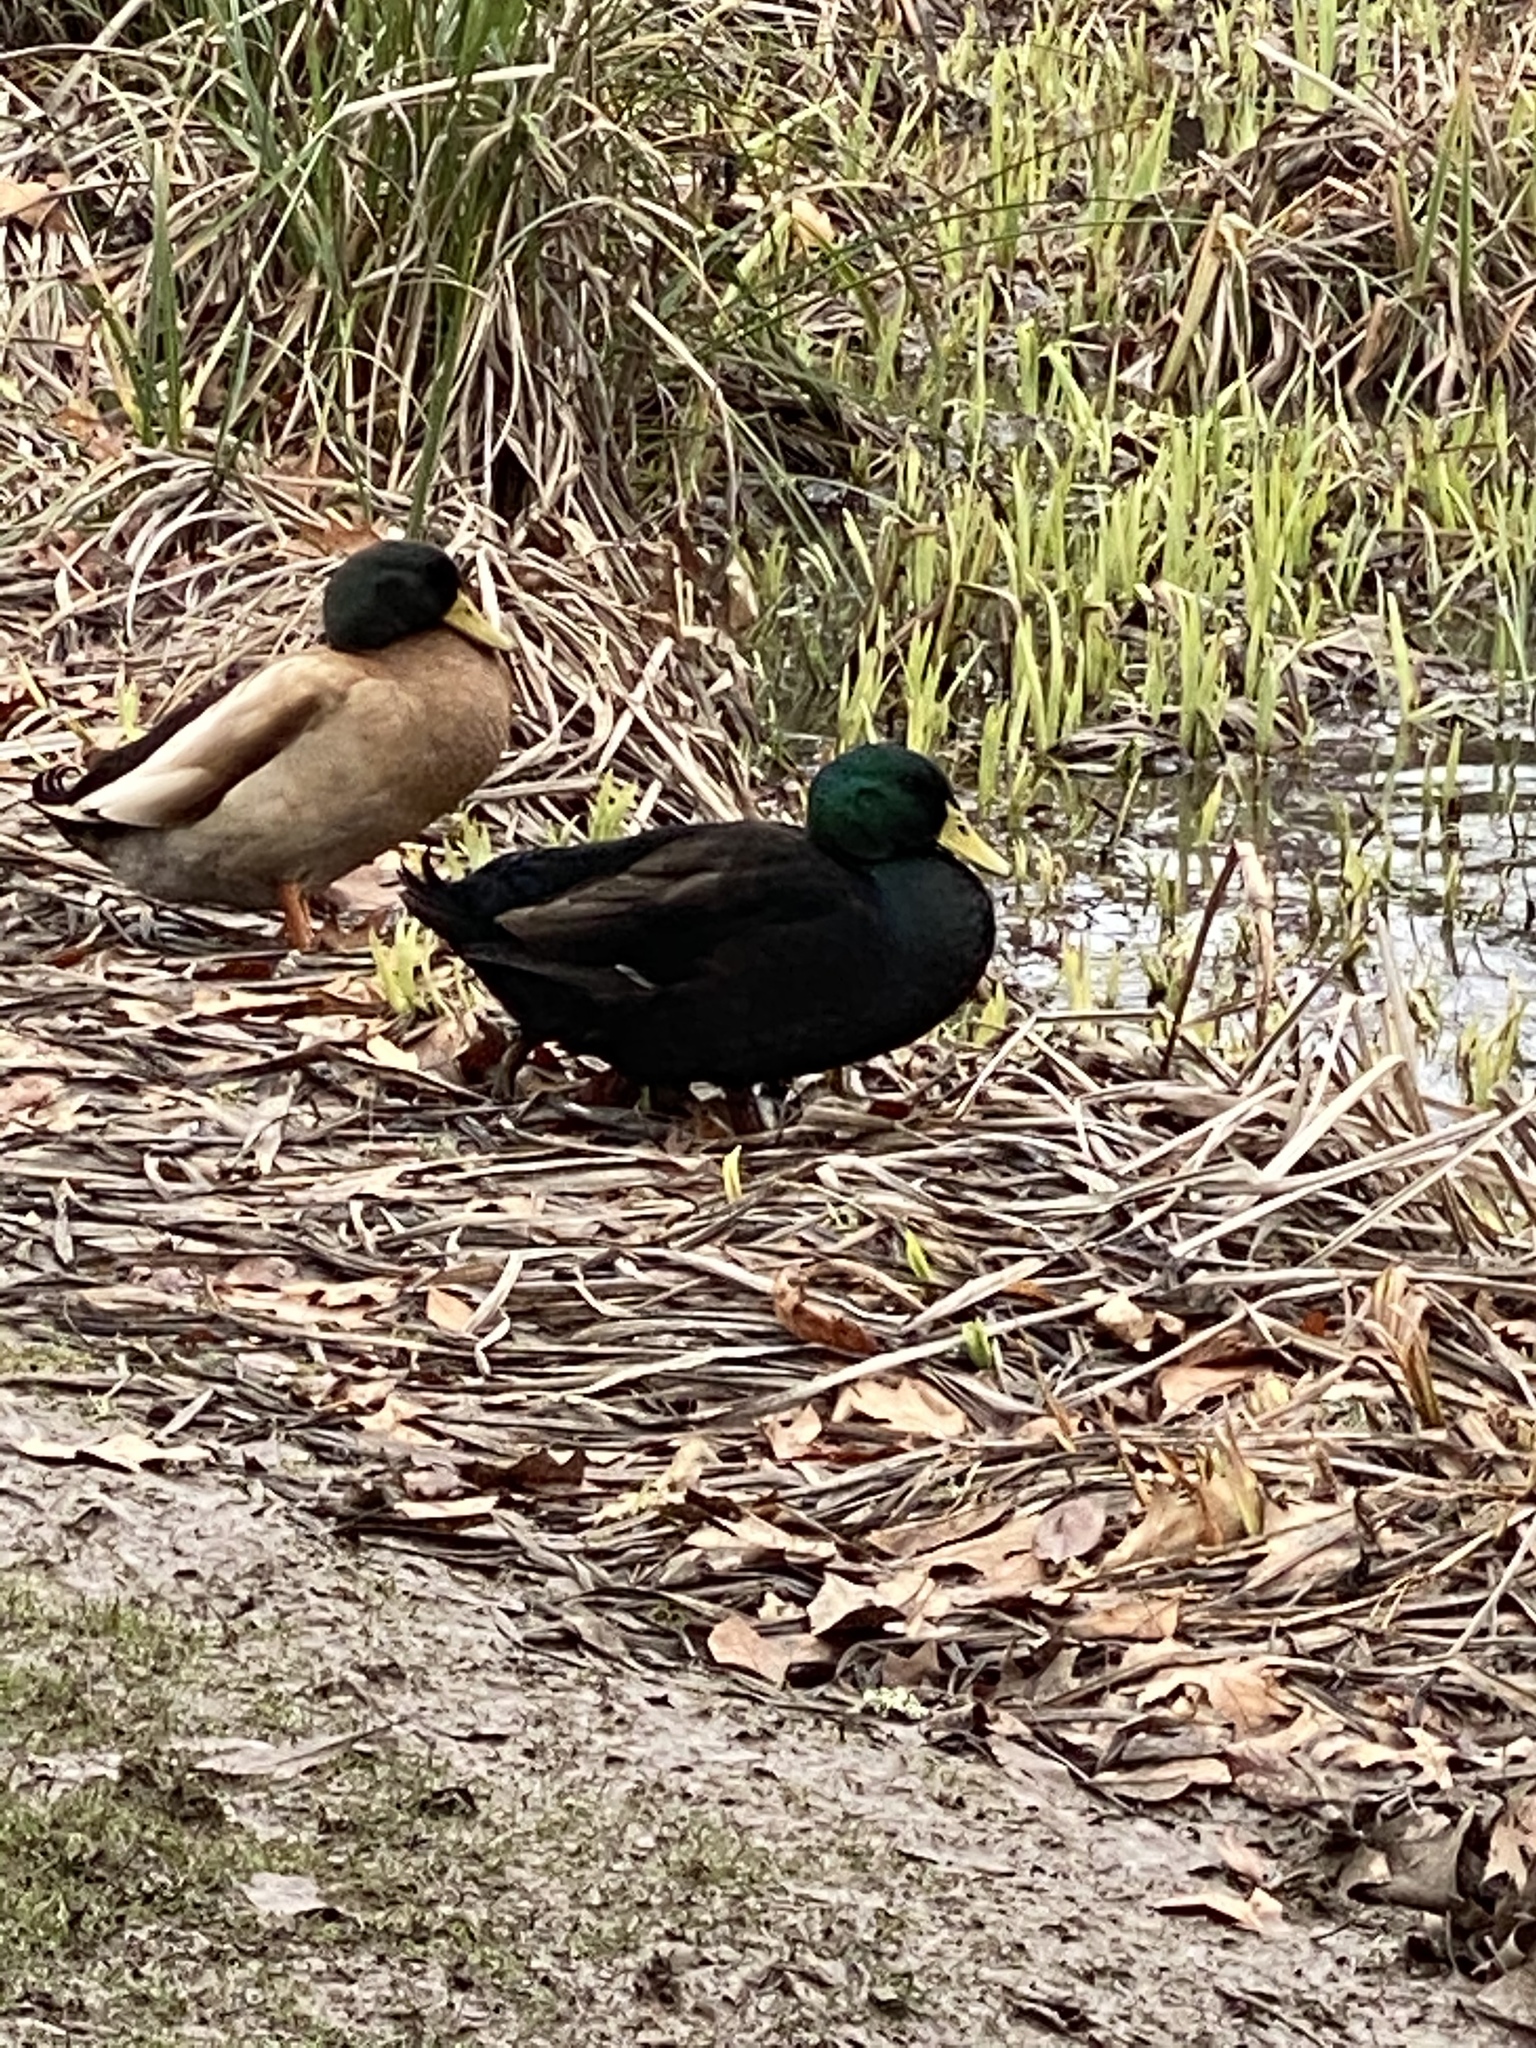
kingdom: Animalia
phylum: Chordata
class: Aves
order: Anseriformes
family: Anatidae
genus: Anas
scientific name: Anas platyrhynchos
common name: Mallard
